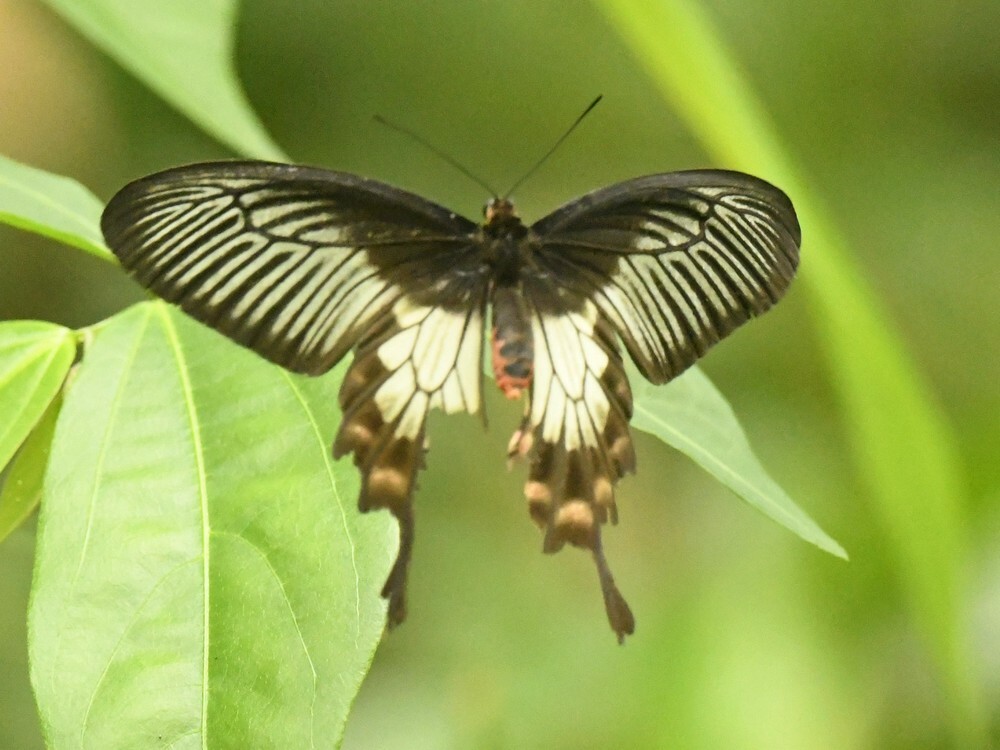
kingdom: Animalia
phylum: Arthropoda
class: Insecta
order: Lepidoptera
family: Papilionidae
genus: Pachliopta
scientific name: Pachliopta pandiyana
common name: Malabar rose
